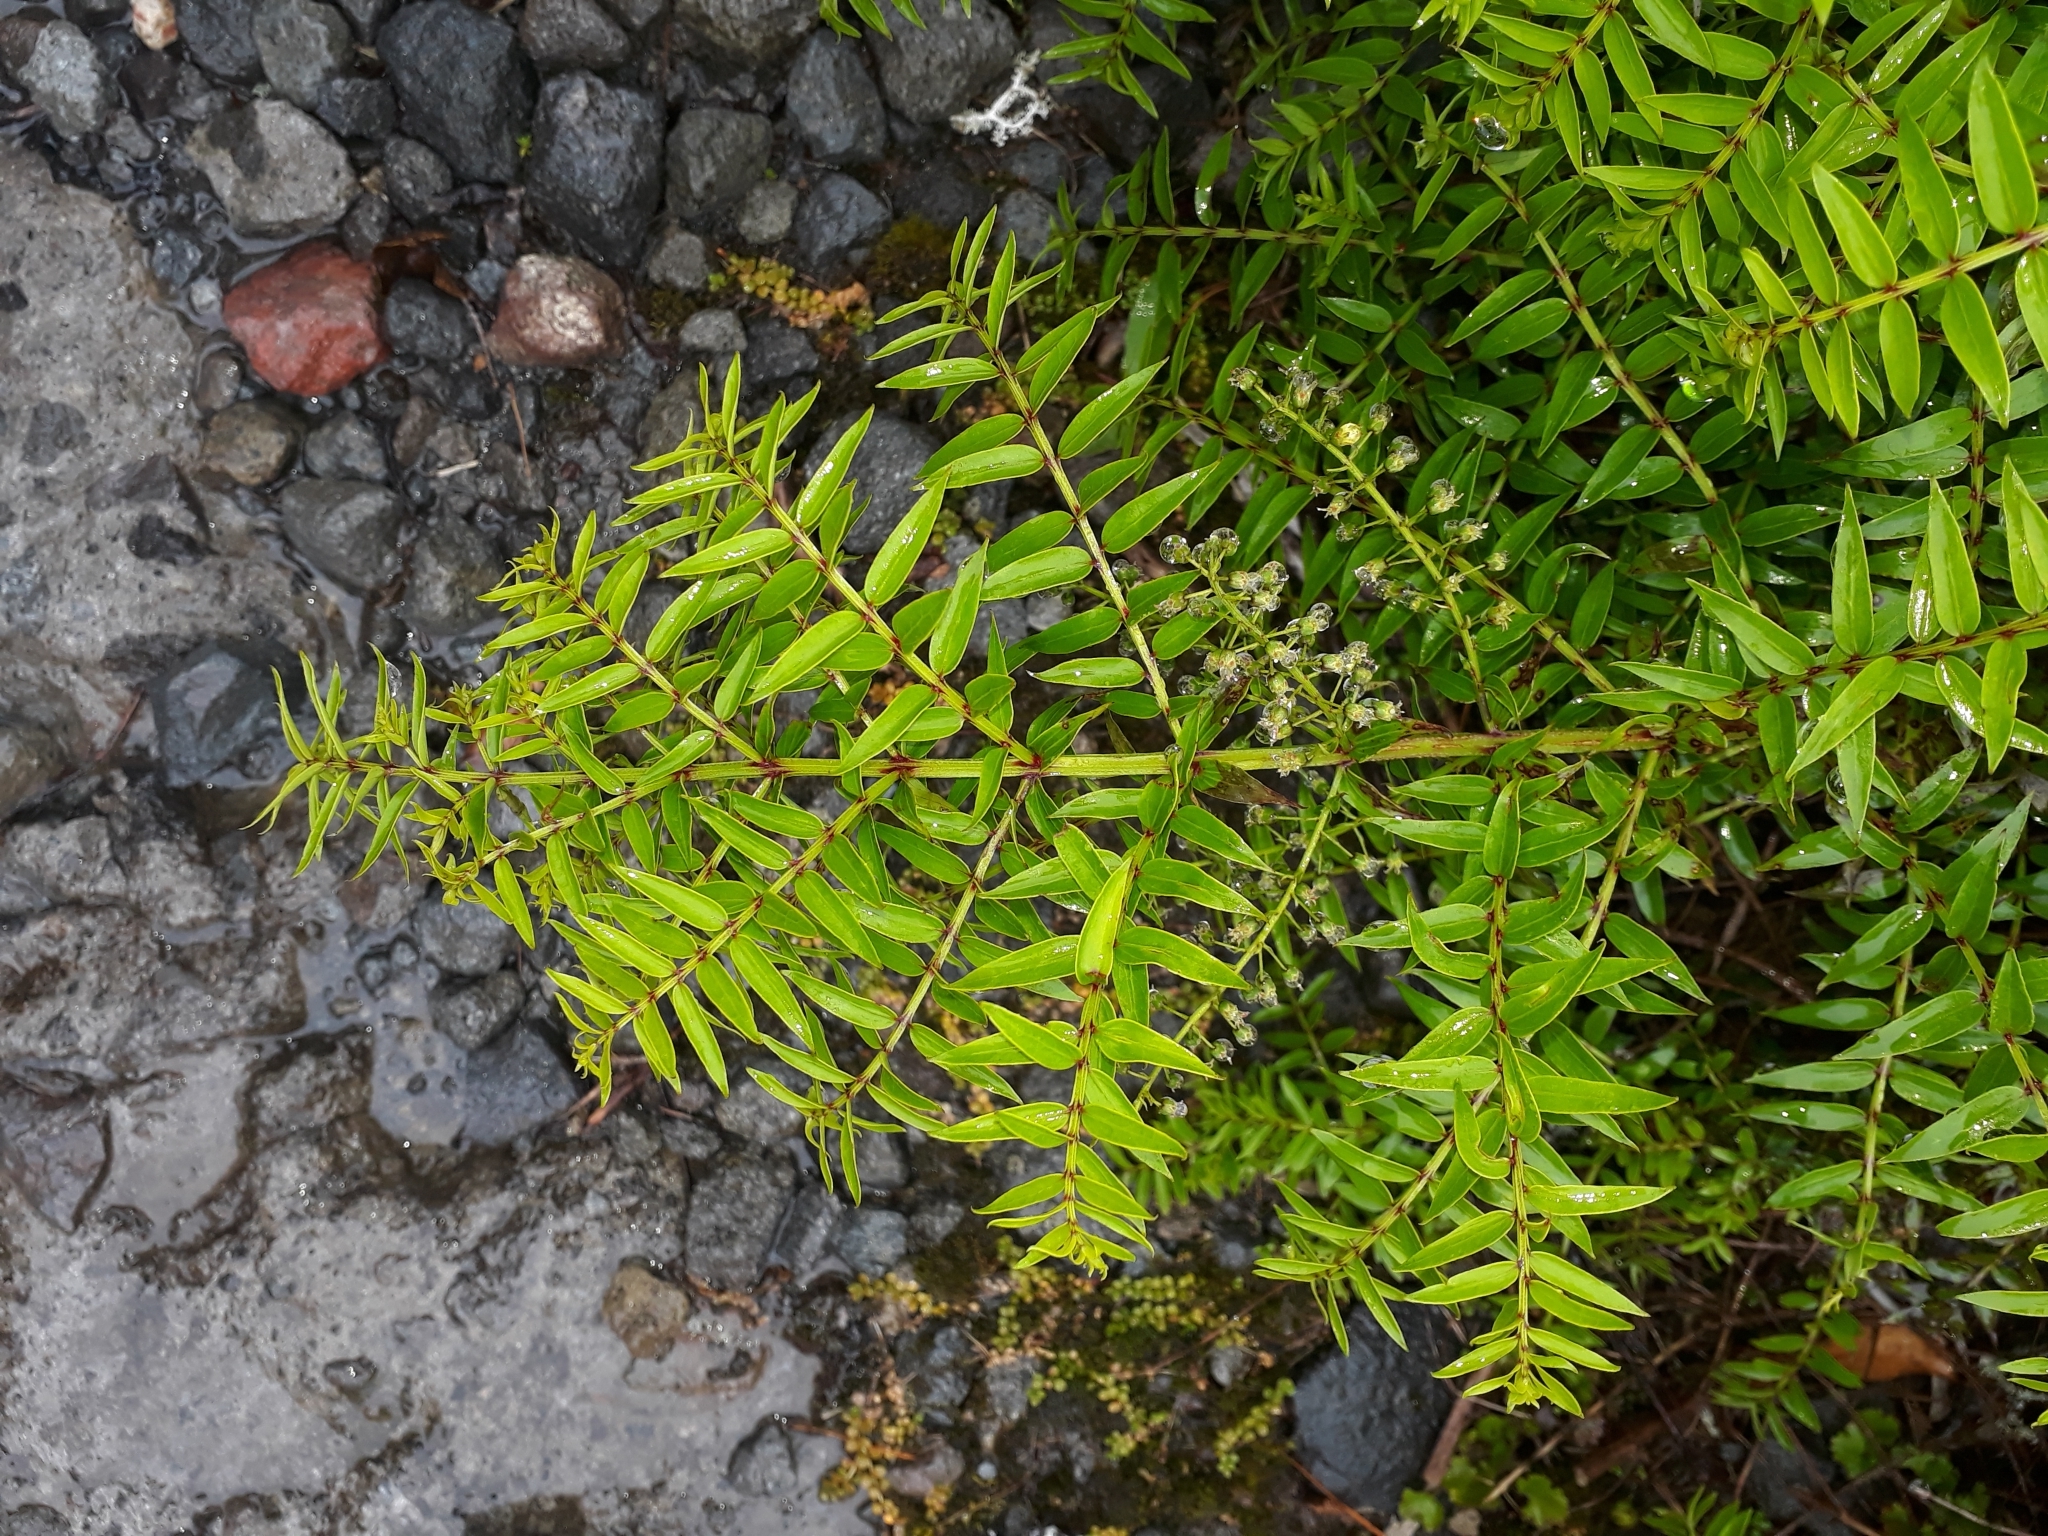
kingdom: Plantae
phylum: Tracheophyta
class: Magnoliopsida
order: Cucurbitales
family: Coriariaceae
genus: Coriaria
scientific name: Coriaria pteridoides
